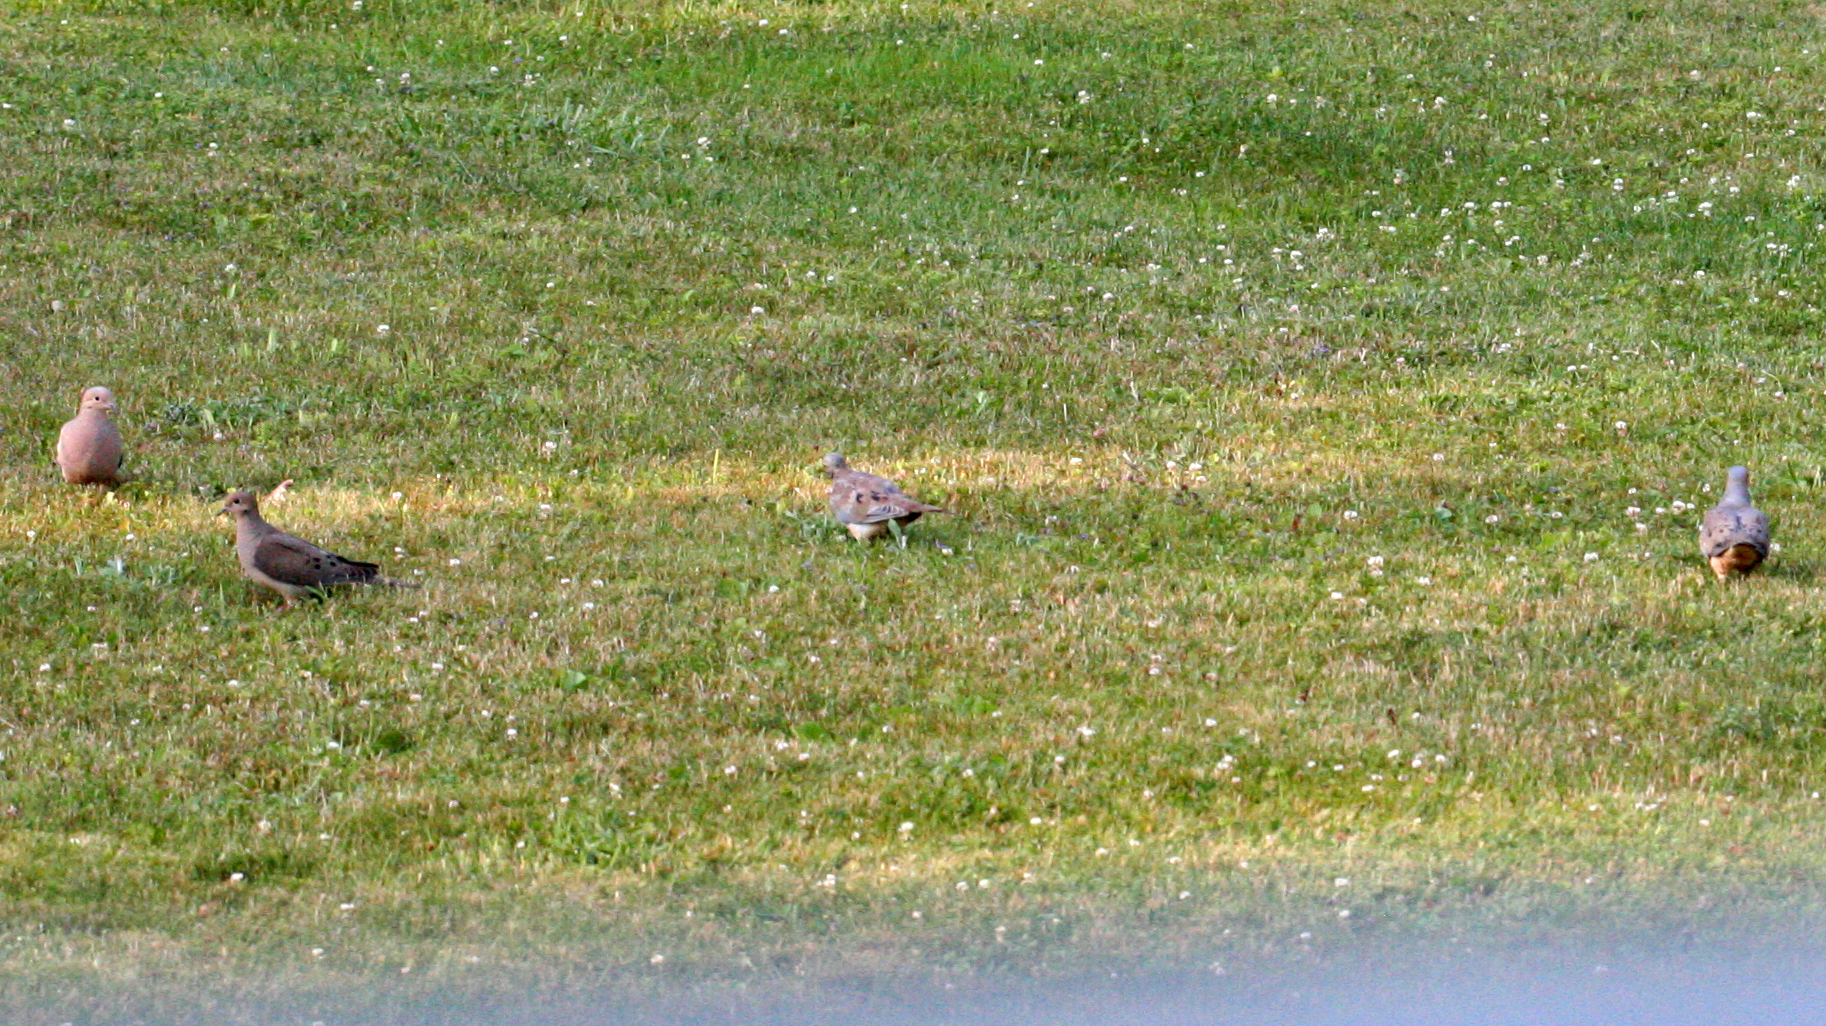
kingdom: Animalia
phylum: Chordata
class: Aves
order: Columbiformes
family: Columbidae
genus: Zenaida
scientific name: Zenaida macroura
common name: Mourning dove
